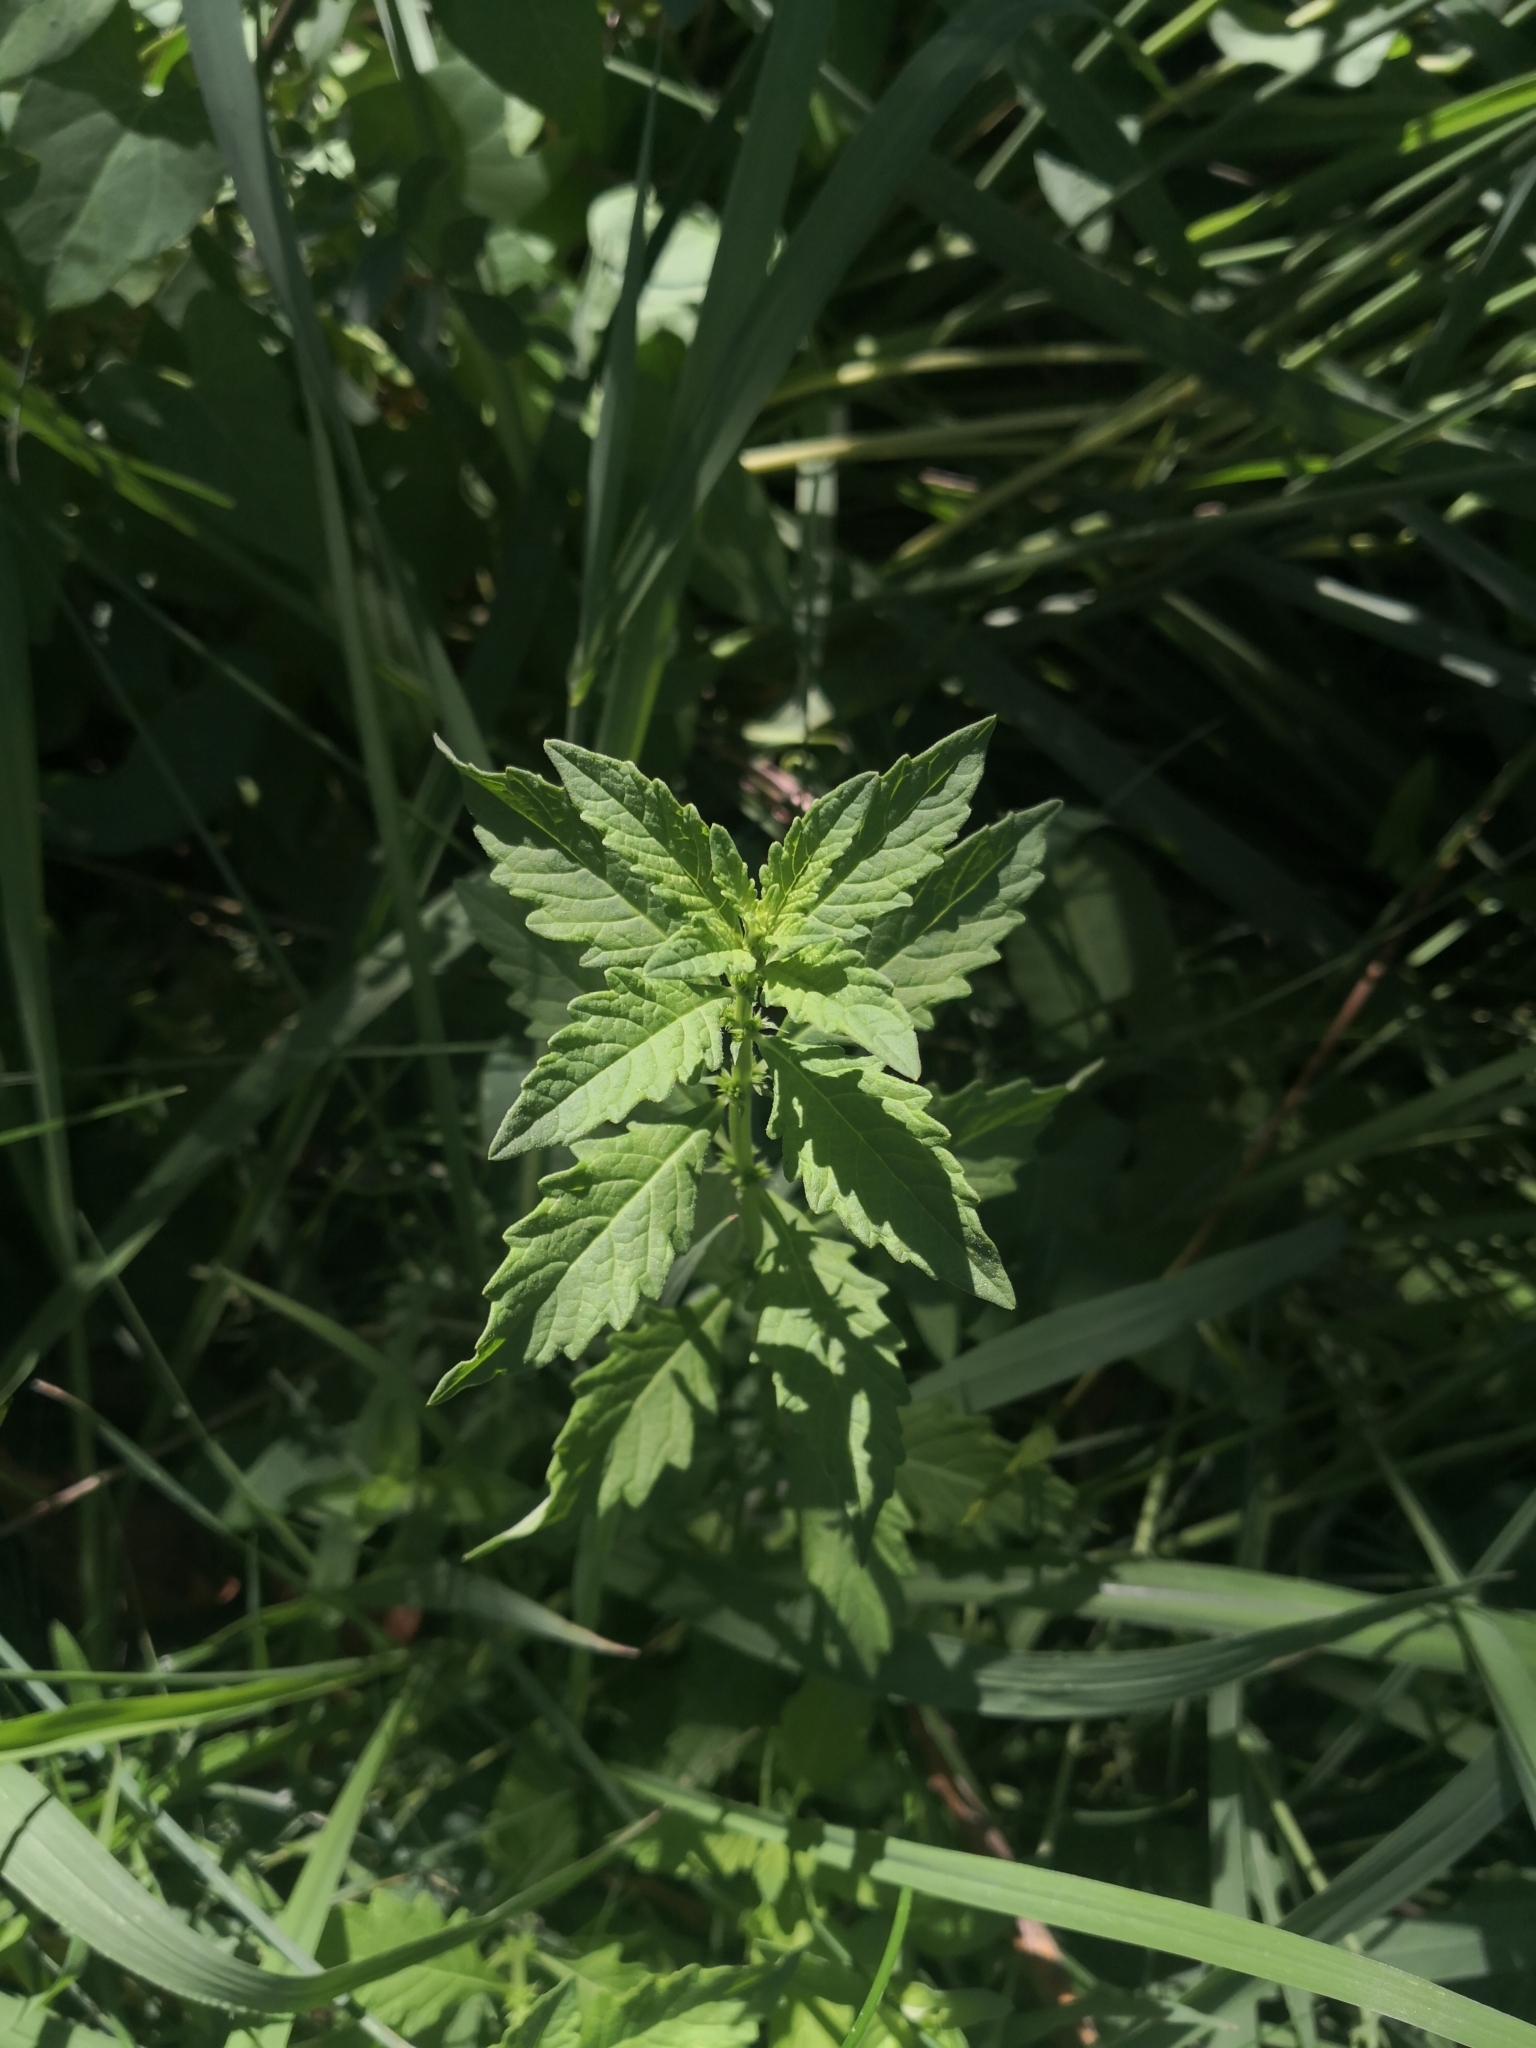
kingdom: Plantae
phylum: Tracheophyta
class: Magnoliopsida
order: Lamiales
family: Lamiaceae
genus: Lycopus
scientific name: Lycopus europaeus
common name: European bugleweed
